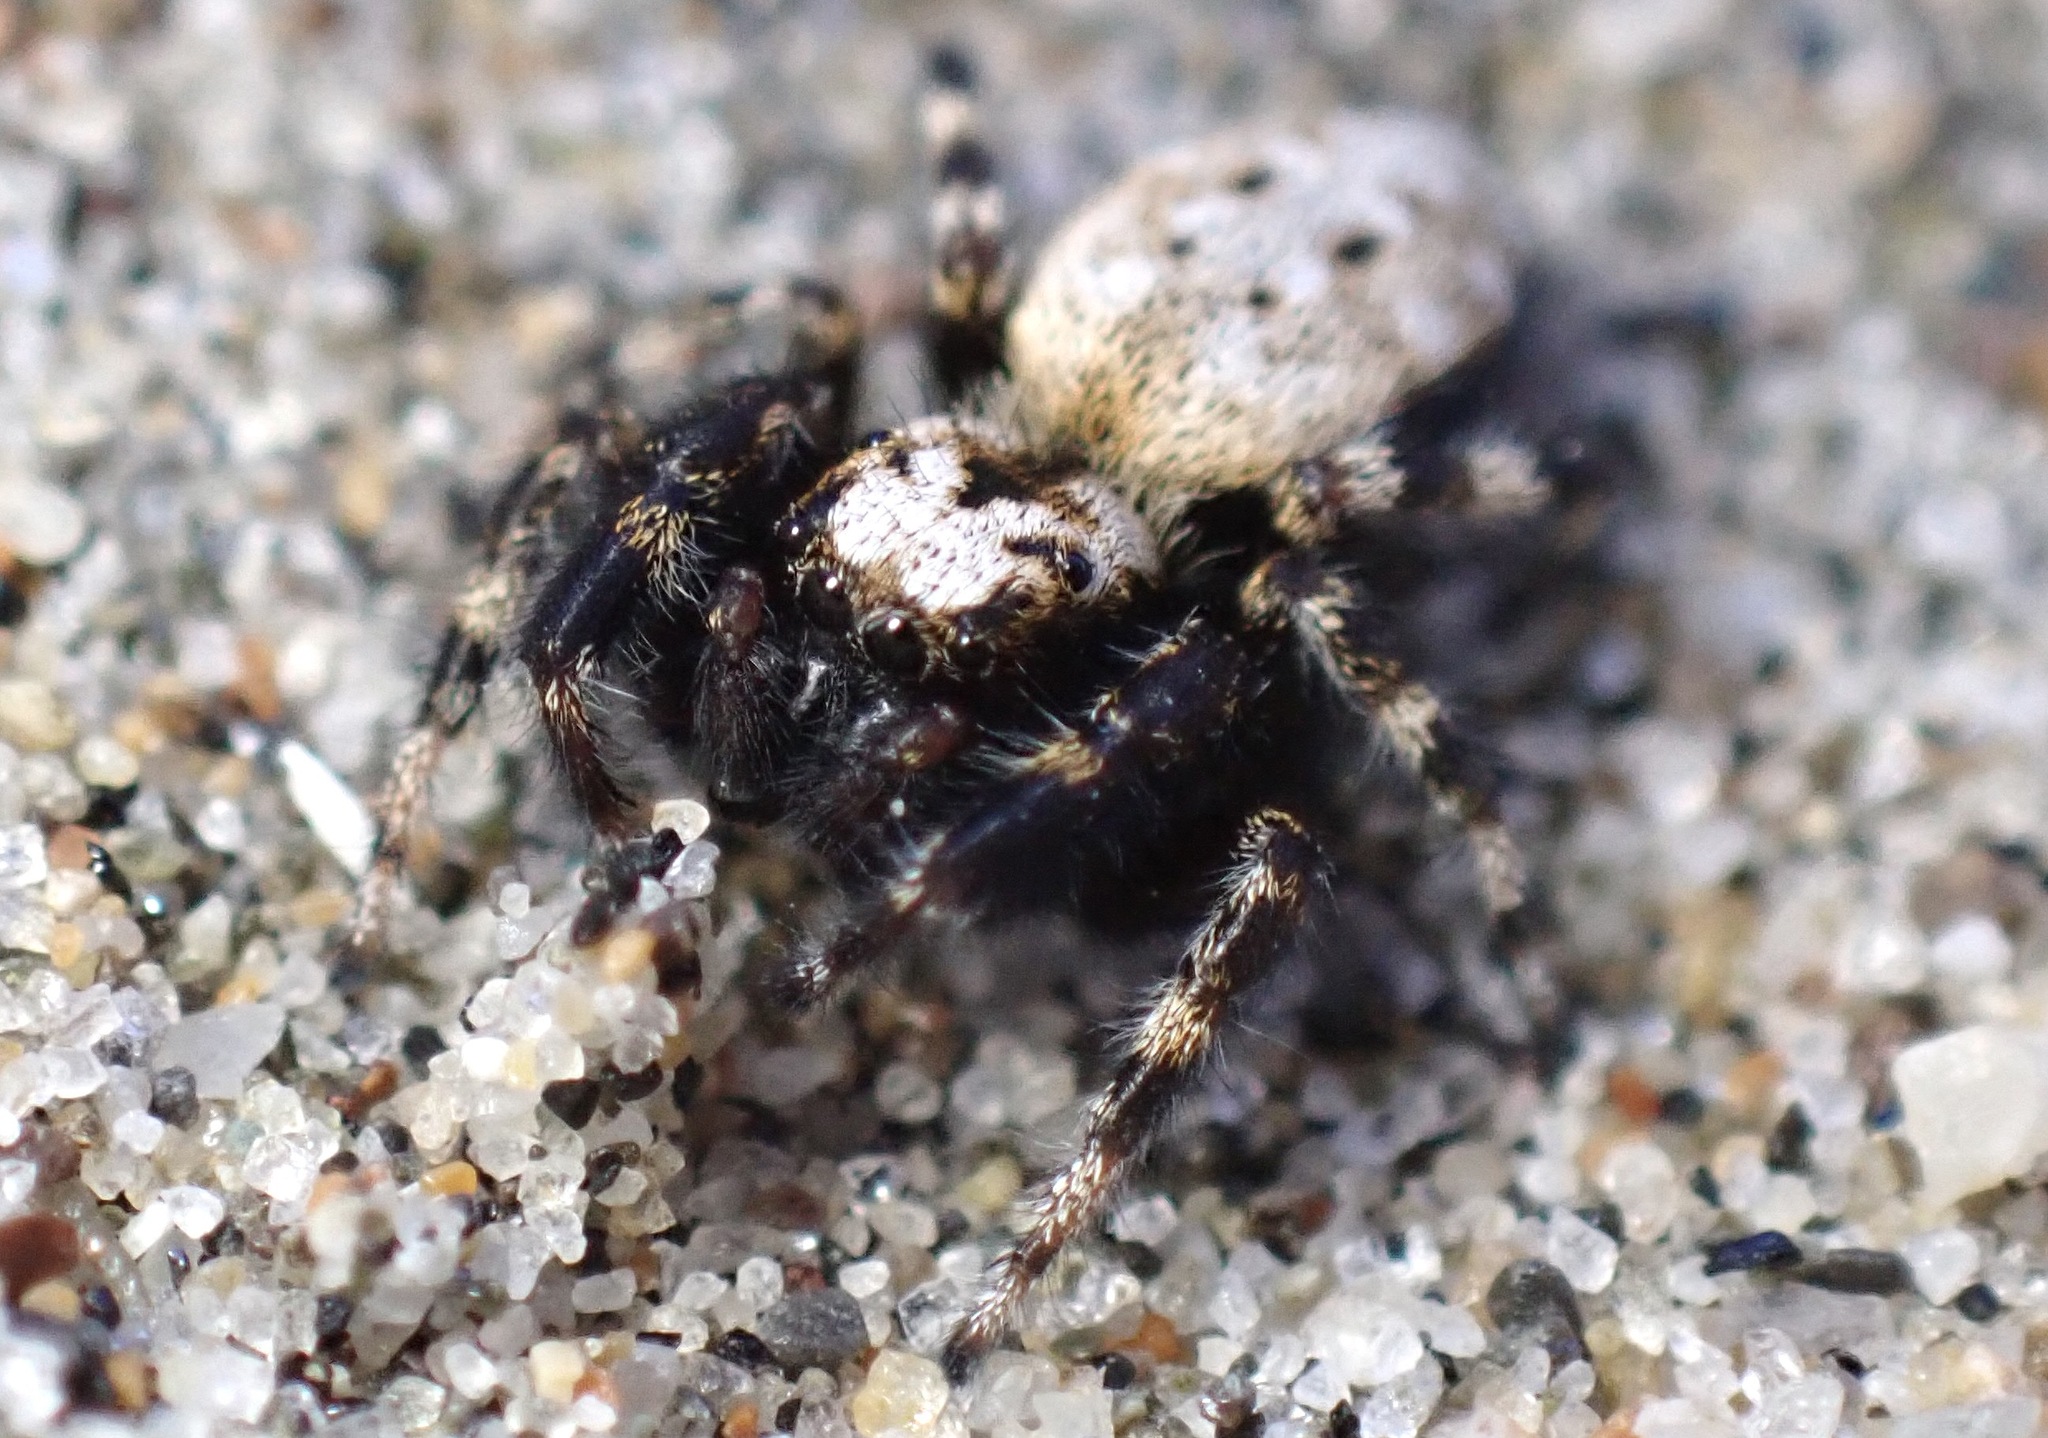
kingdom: Animalia
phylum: Arthropoda
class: Arachnida
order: Araneae
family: Salticidae
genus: Terralonus
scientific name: Terralonus californicus
